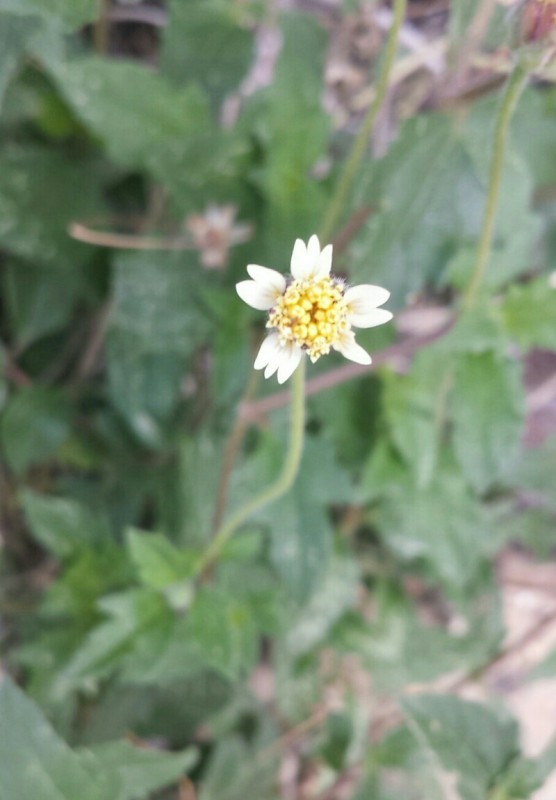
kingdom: Plantae
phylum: Tracheophyta
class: Magnoliopsida
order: Asterales
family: Asteraceae
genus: Tridax
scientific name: Tridax procumbens
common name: Coatbuttons
